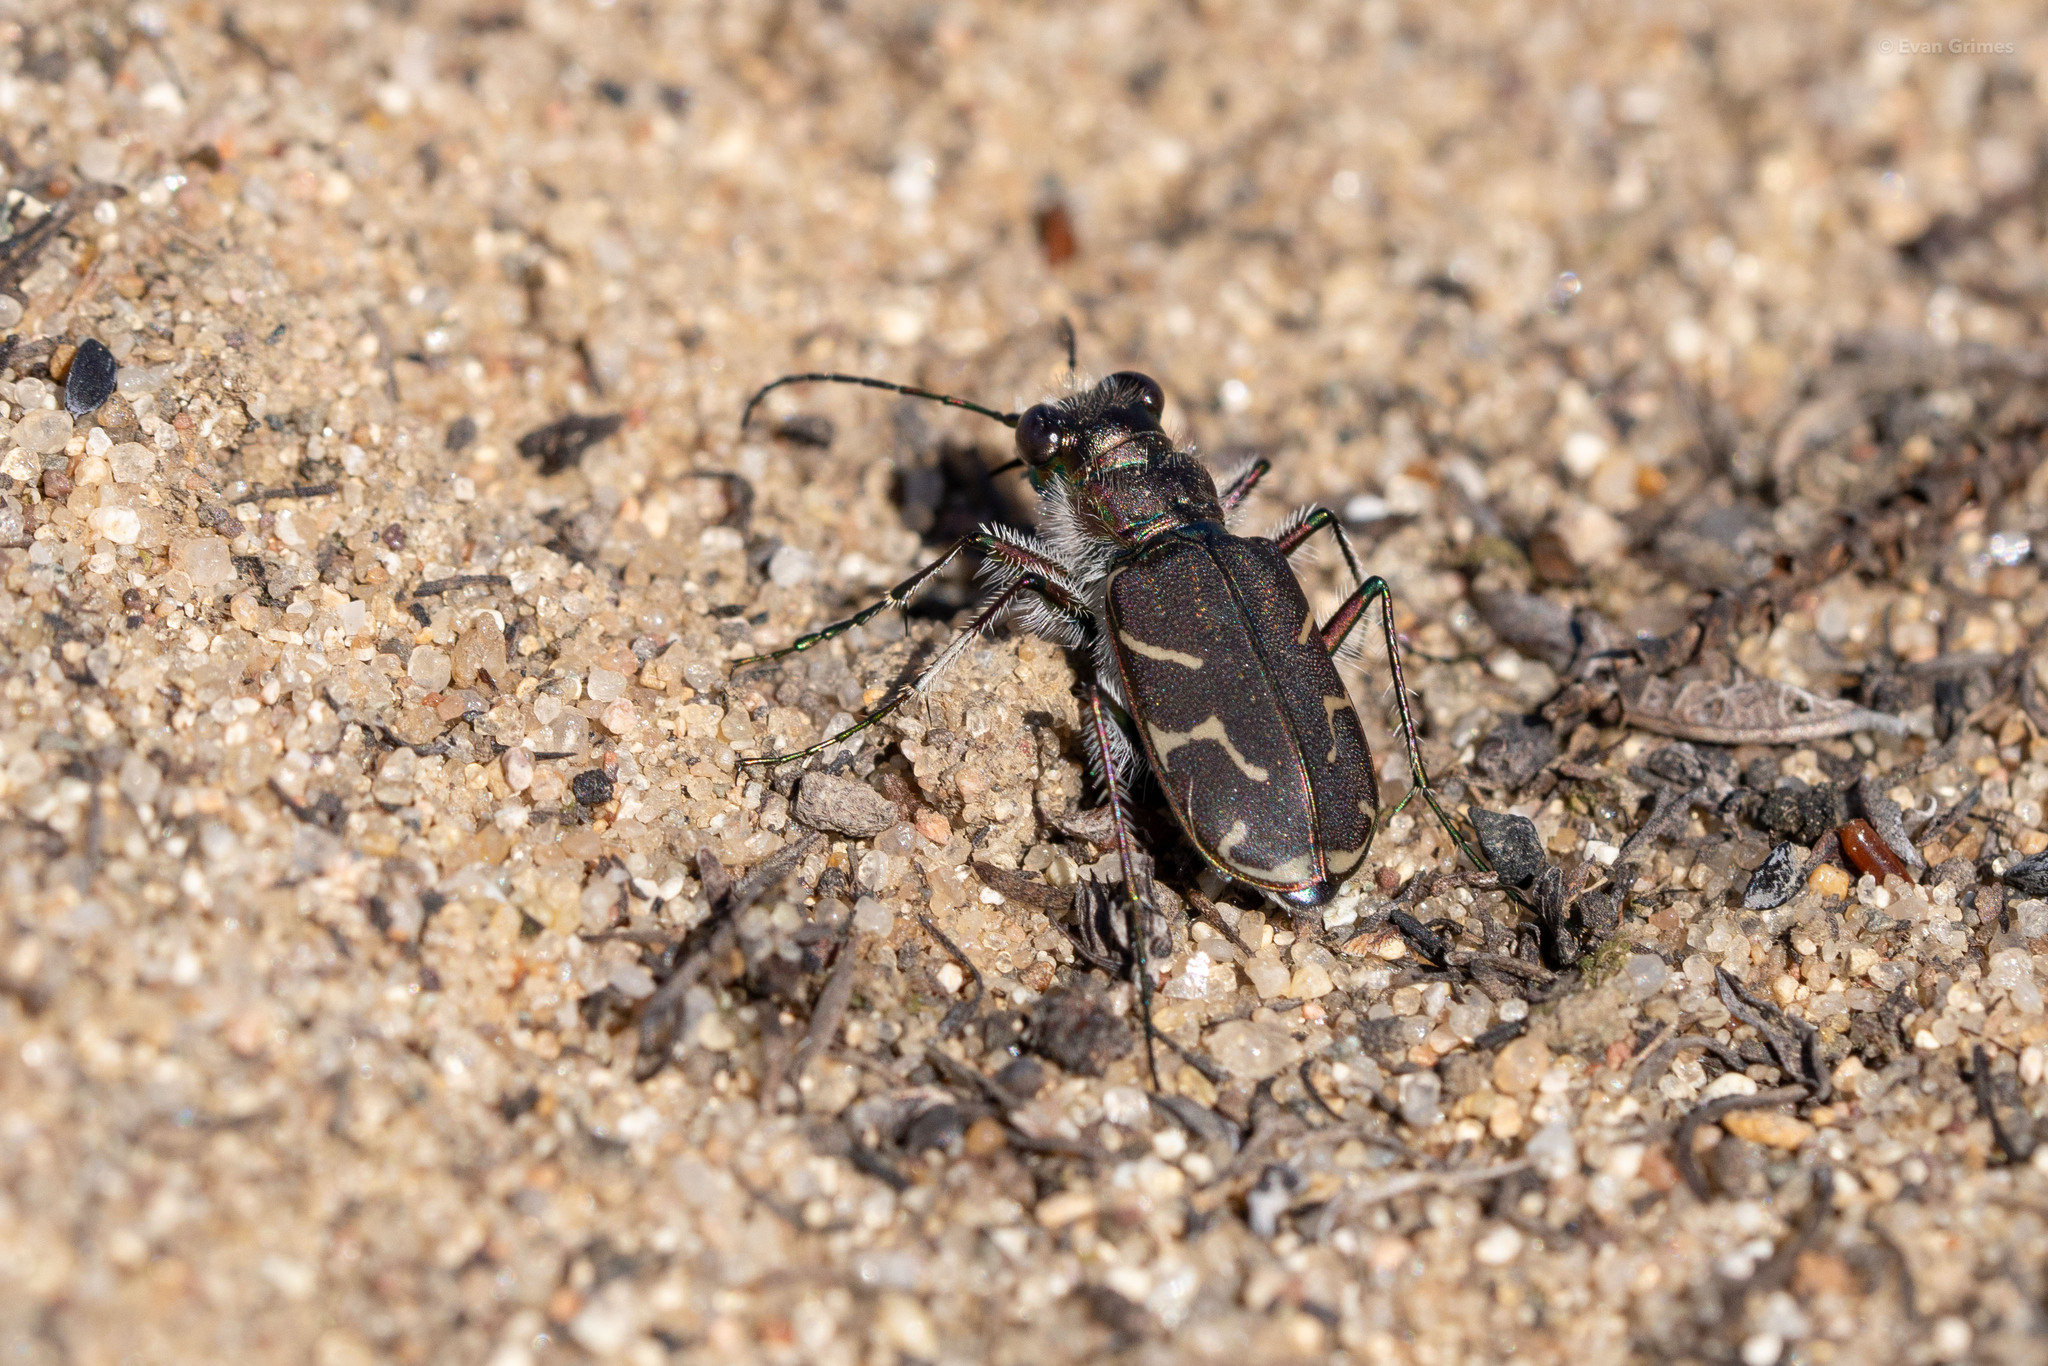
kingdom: Animalia
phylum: Arthropoda
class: Insecta
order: Coleoptera
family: Carabidae
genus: Cicindela
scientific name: Cicindela tranquebarica
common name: Oblique-lined tiger beetle
